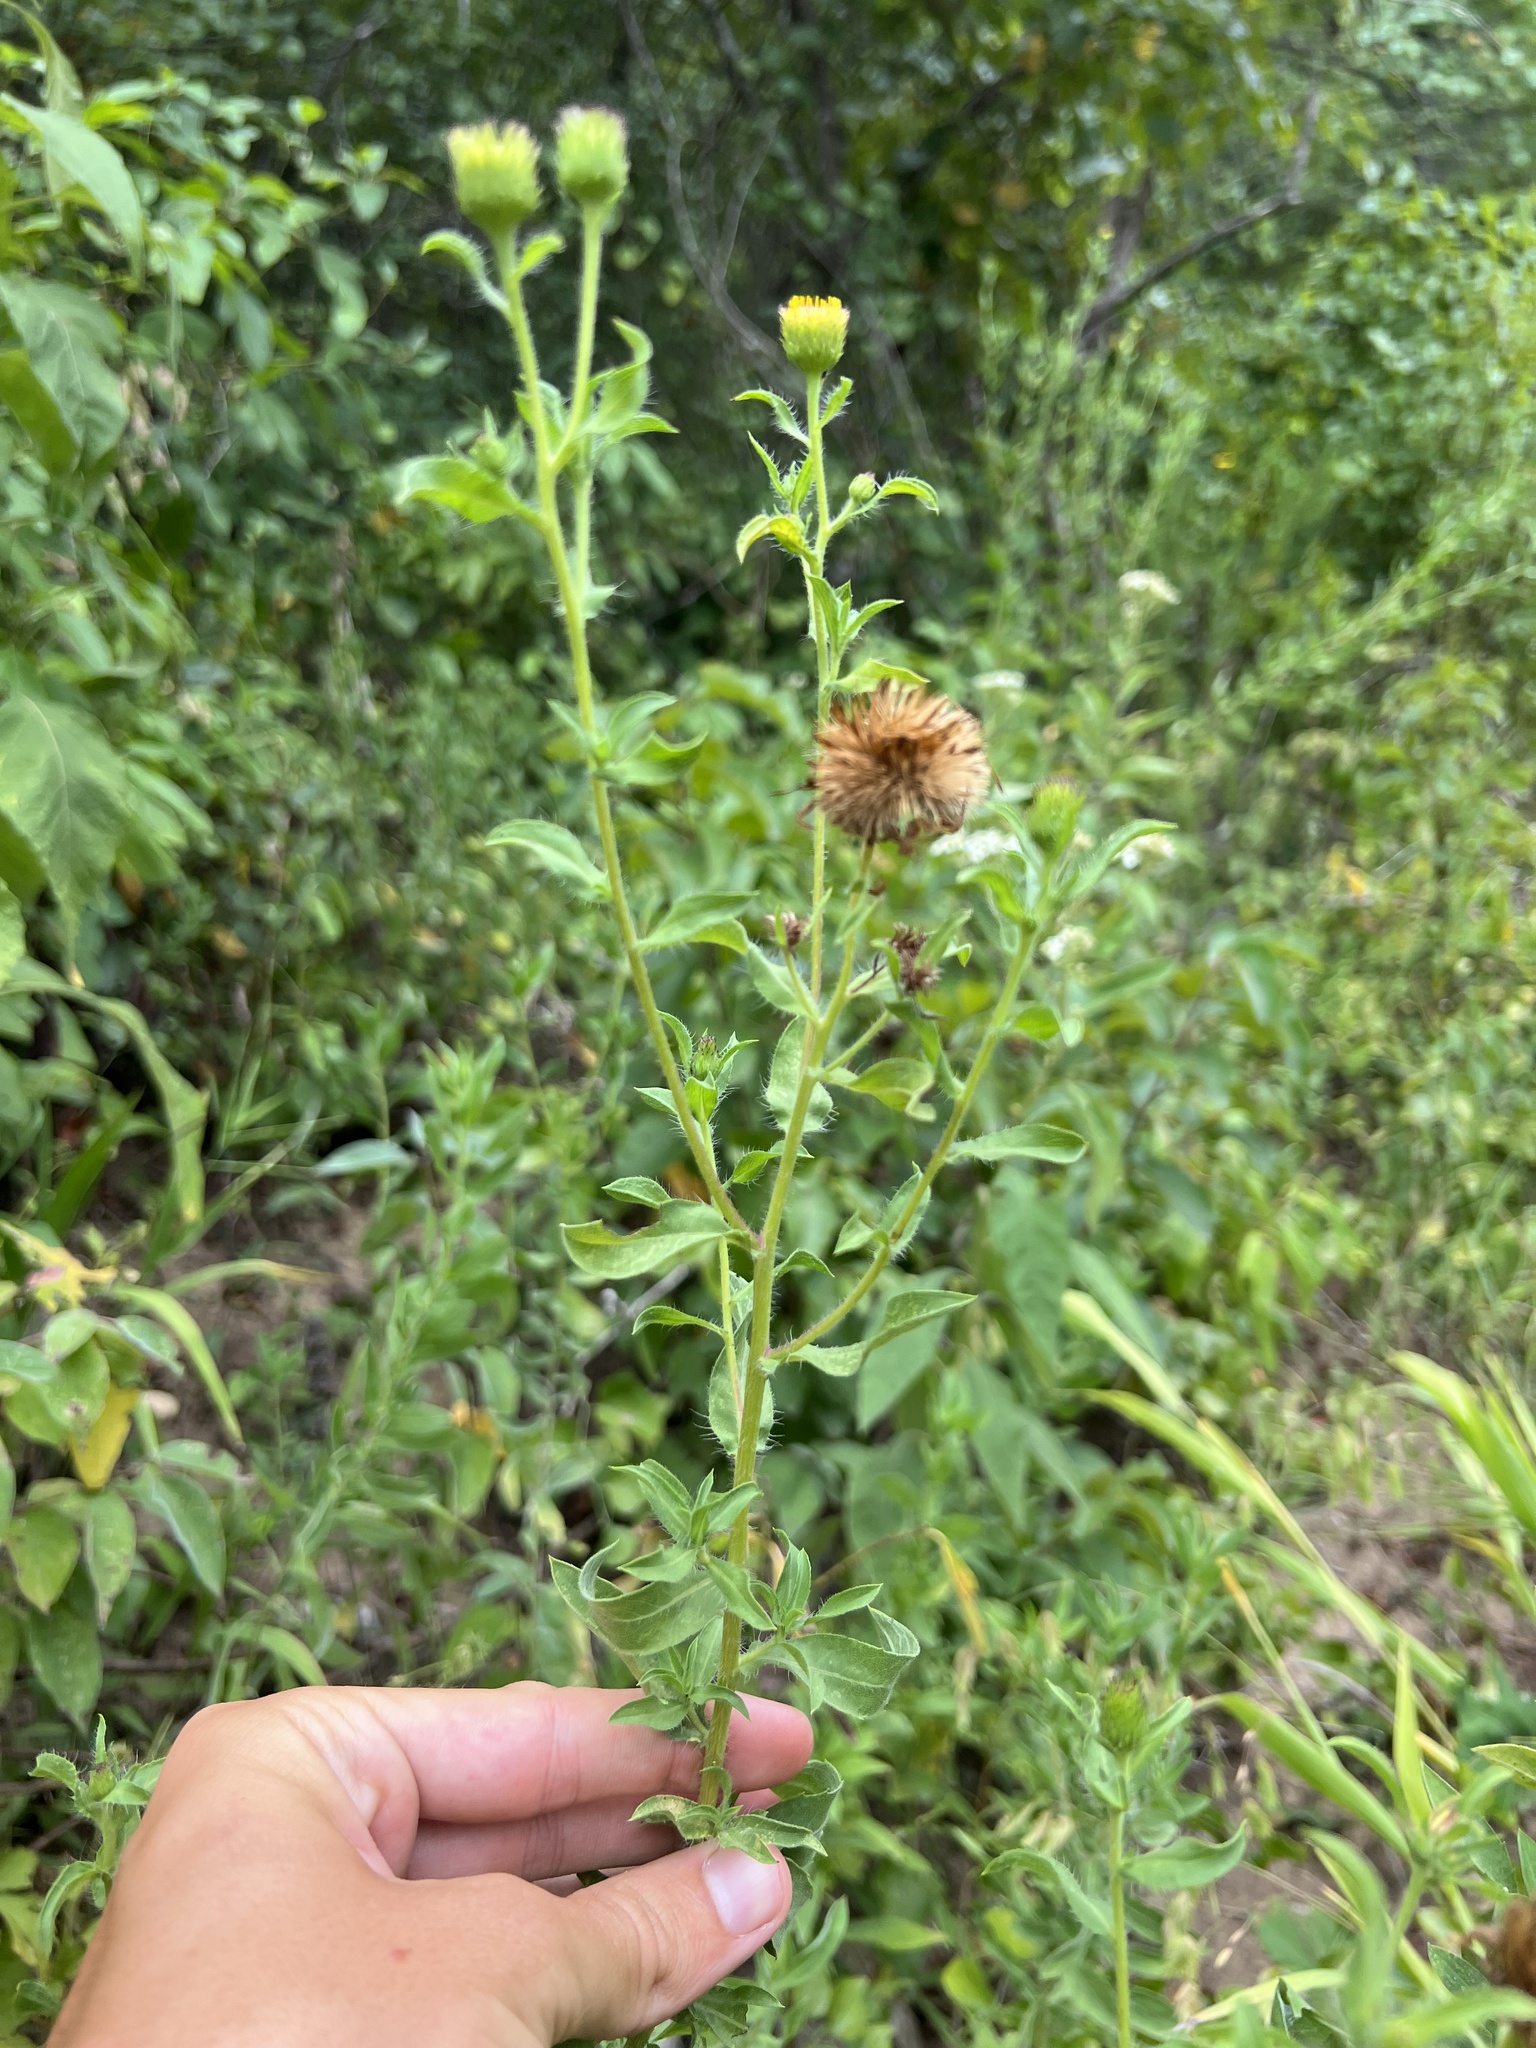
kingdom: Plantae
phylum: Tracheophyta
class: Magnoliopsida
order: Asterales
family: Asteraceae
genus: Heterotheca
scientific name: Heterotheca camporum
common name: Prairie golden-aster
